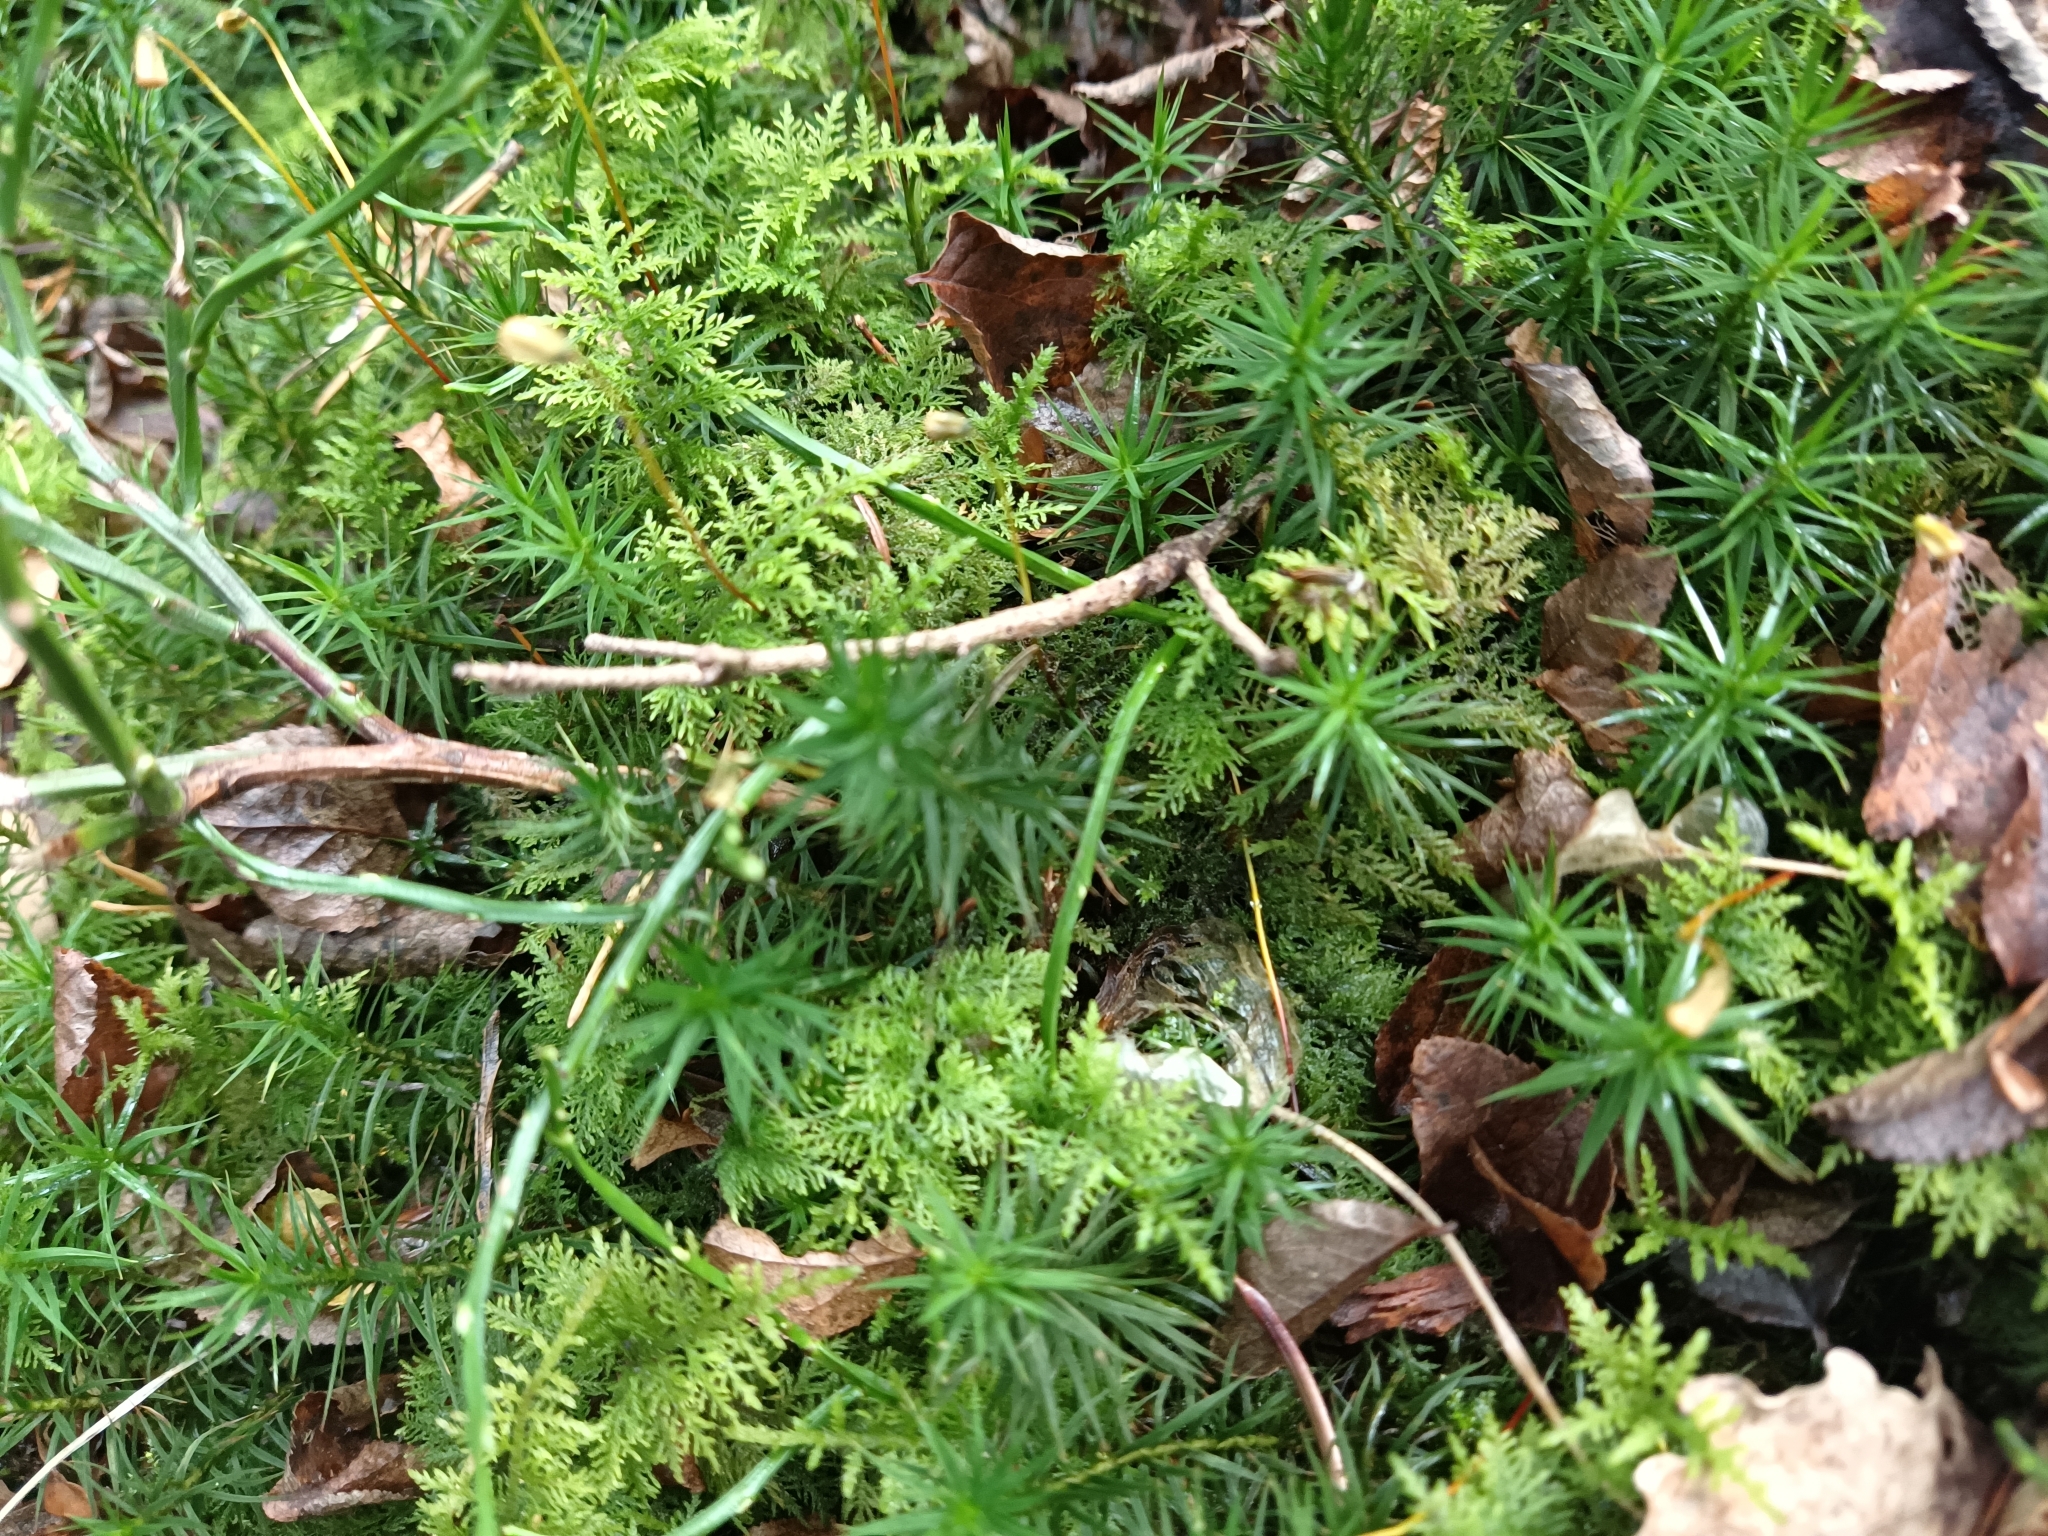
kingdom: Plantae
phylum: Bryophyta
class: Polytrichopsida
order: Polytrichales
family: Polytrichaceae
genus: Polytrichum
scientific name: Polytrichum formosum
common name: Bank haircap moss
